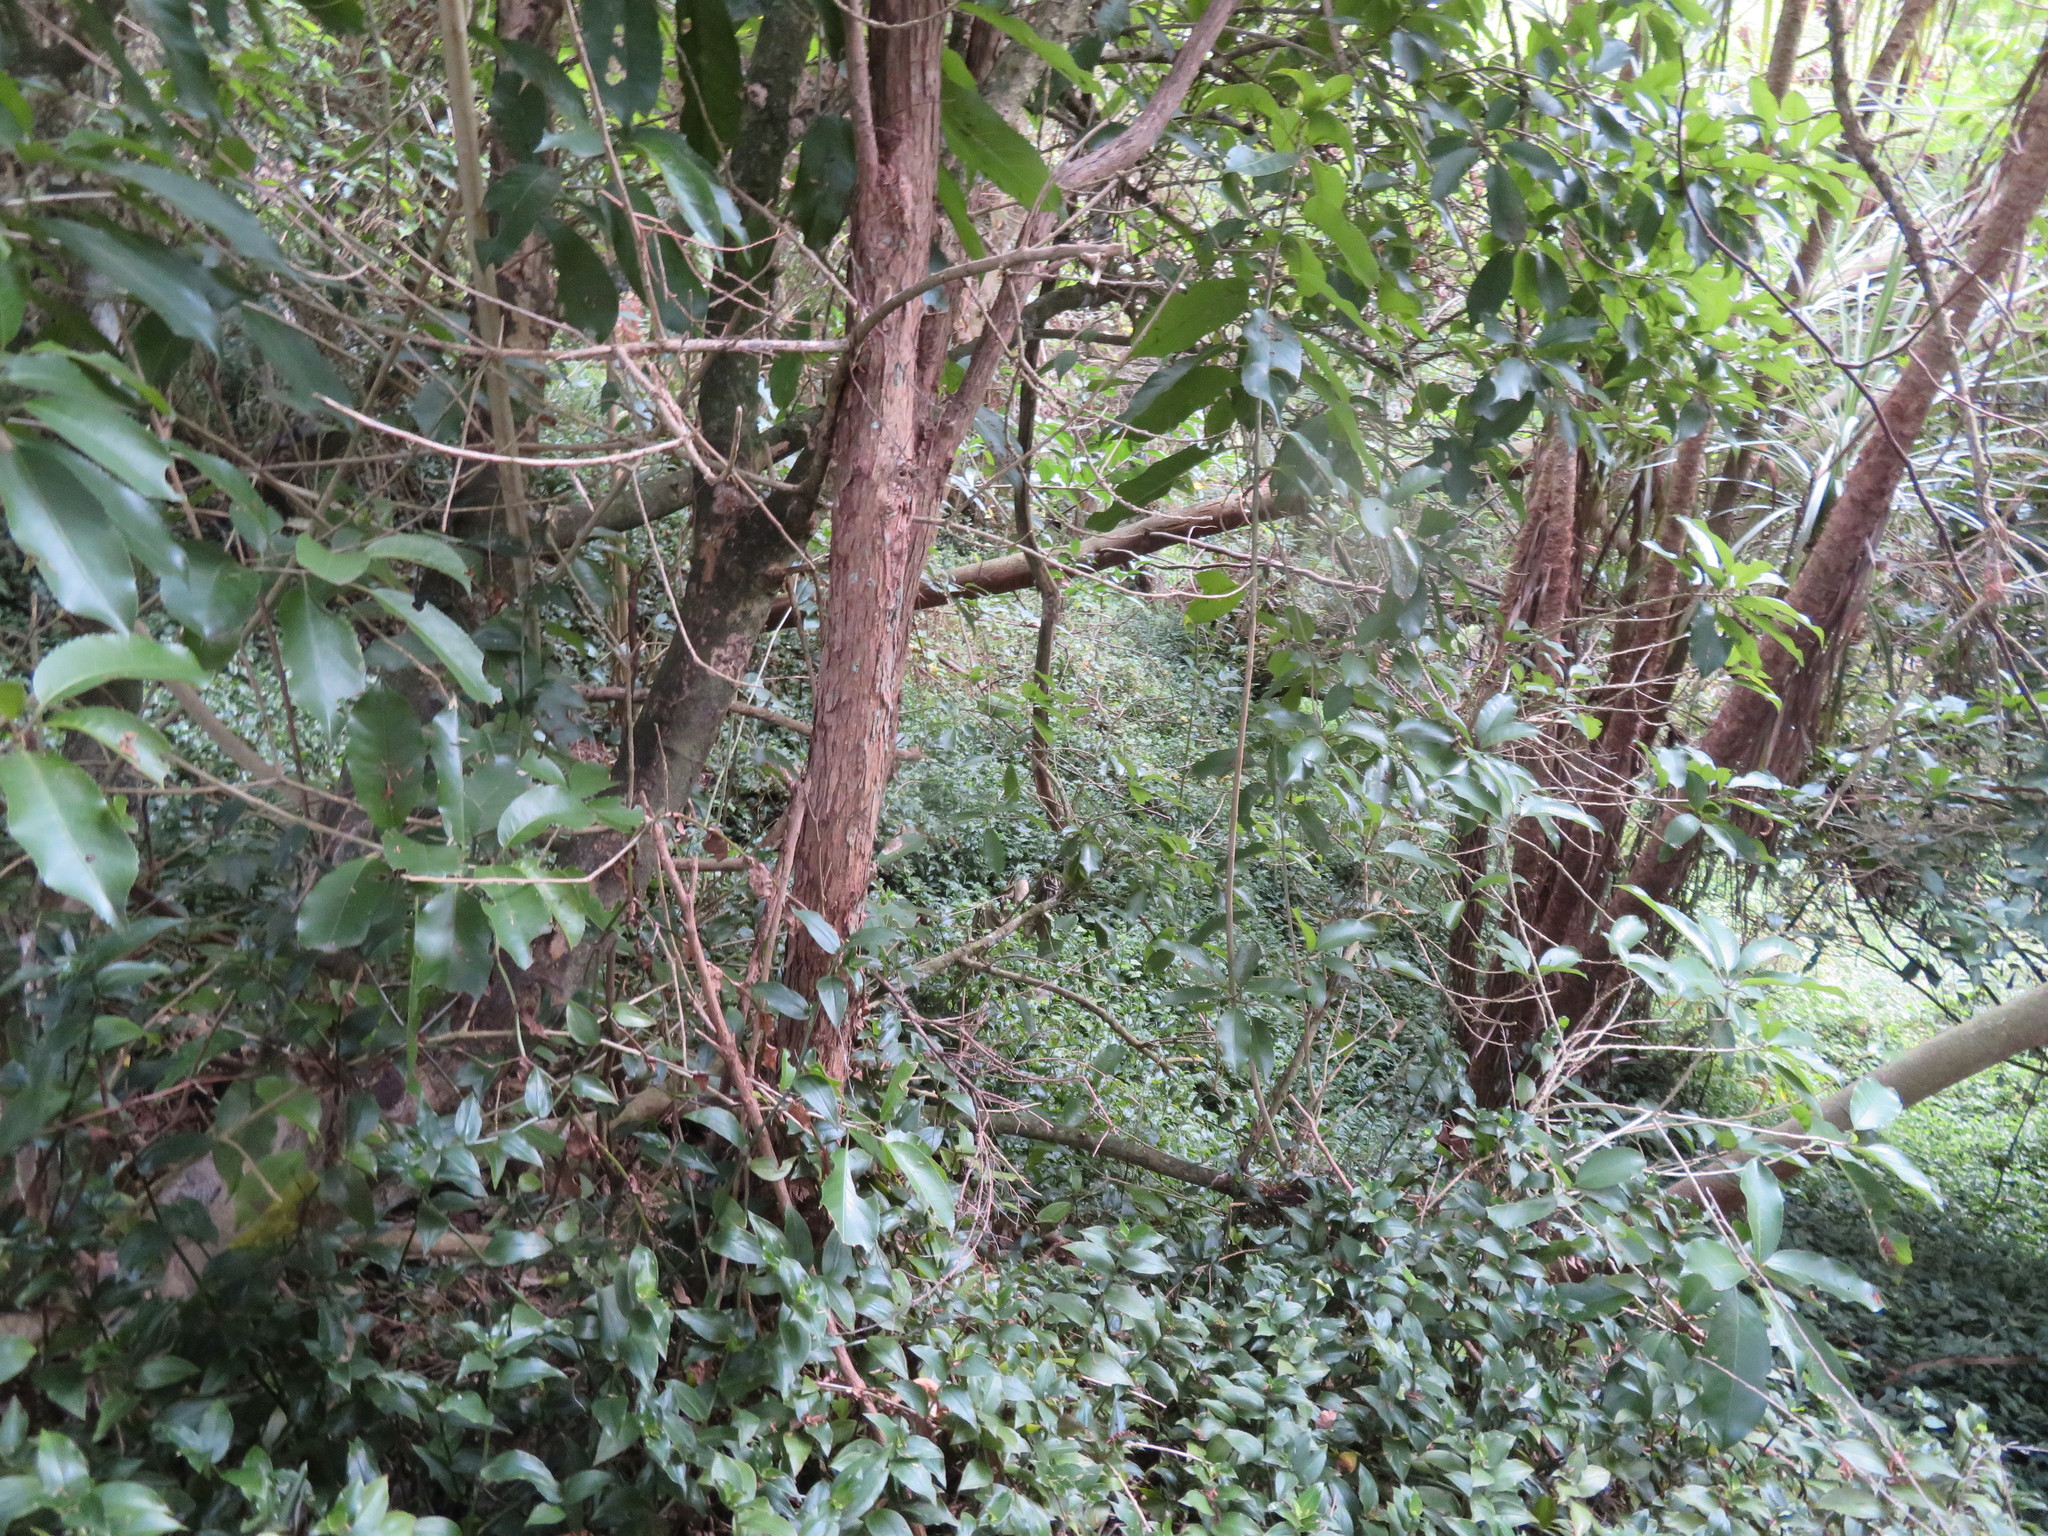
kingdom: Plantae
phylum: Tracheophyta
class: Magnoliopsida
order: Malpighiales
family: Violaceae
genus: Melicytus
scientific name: Melicytus ramiflorus
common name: Mahoe
